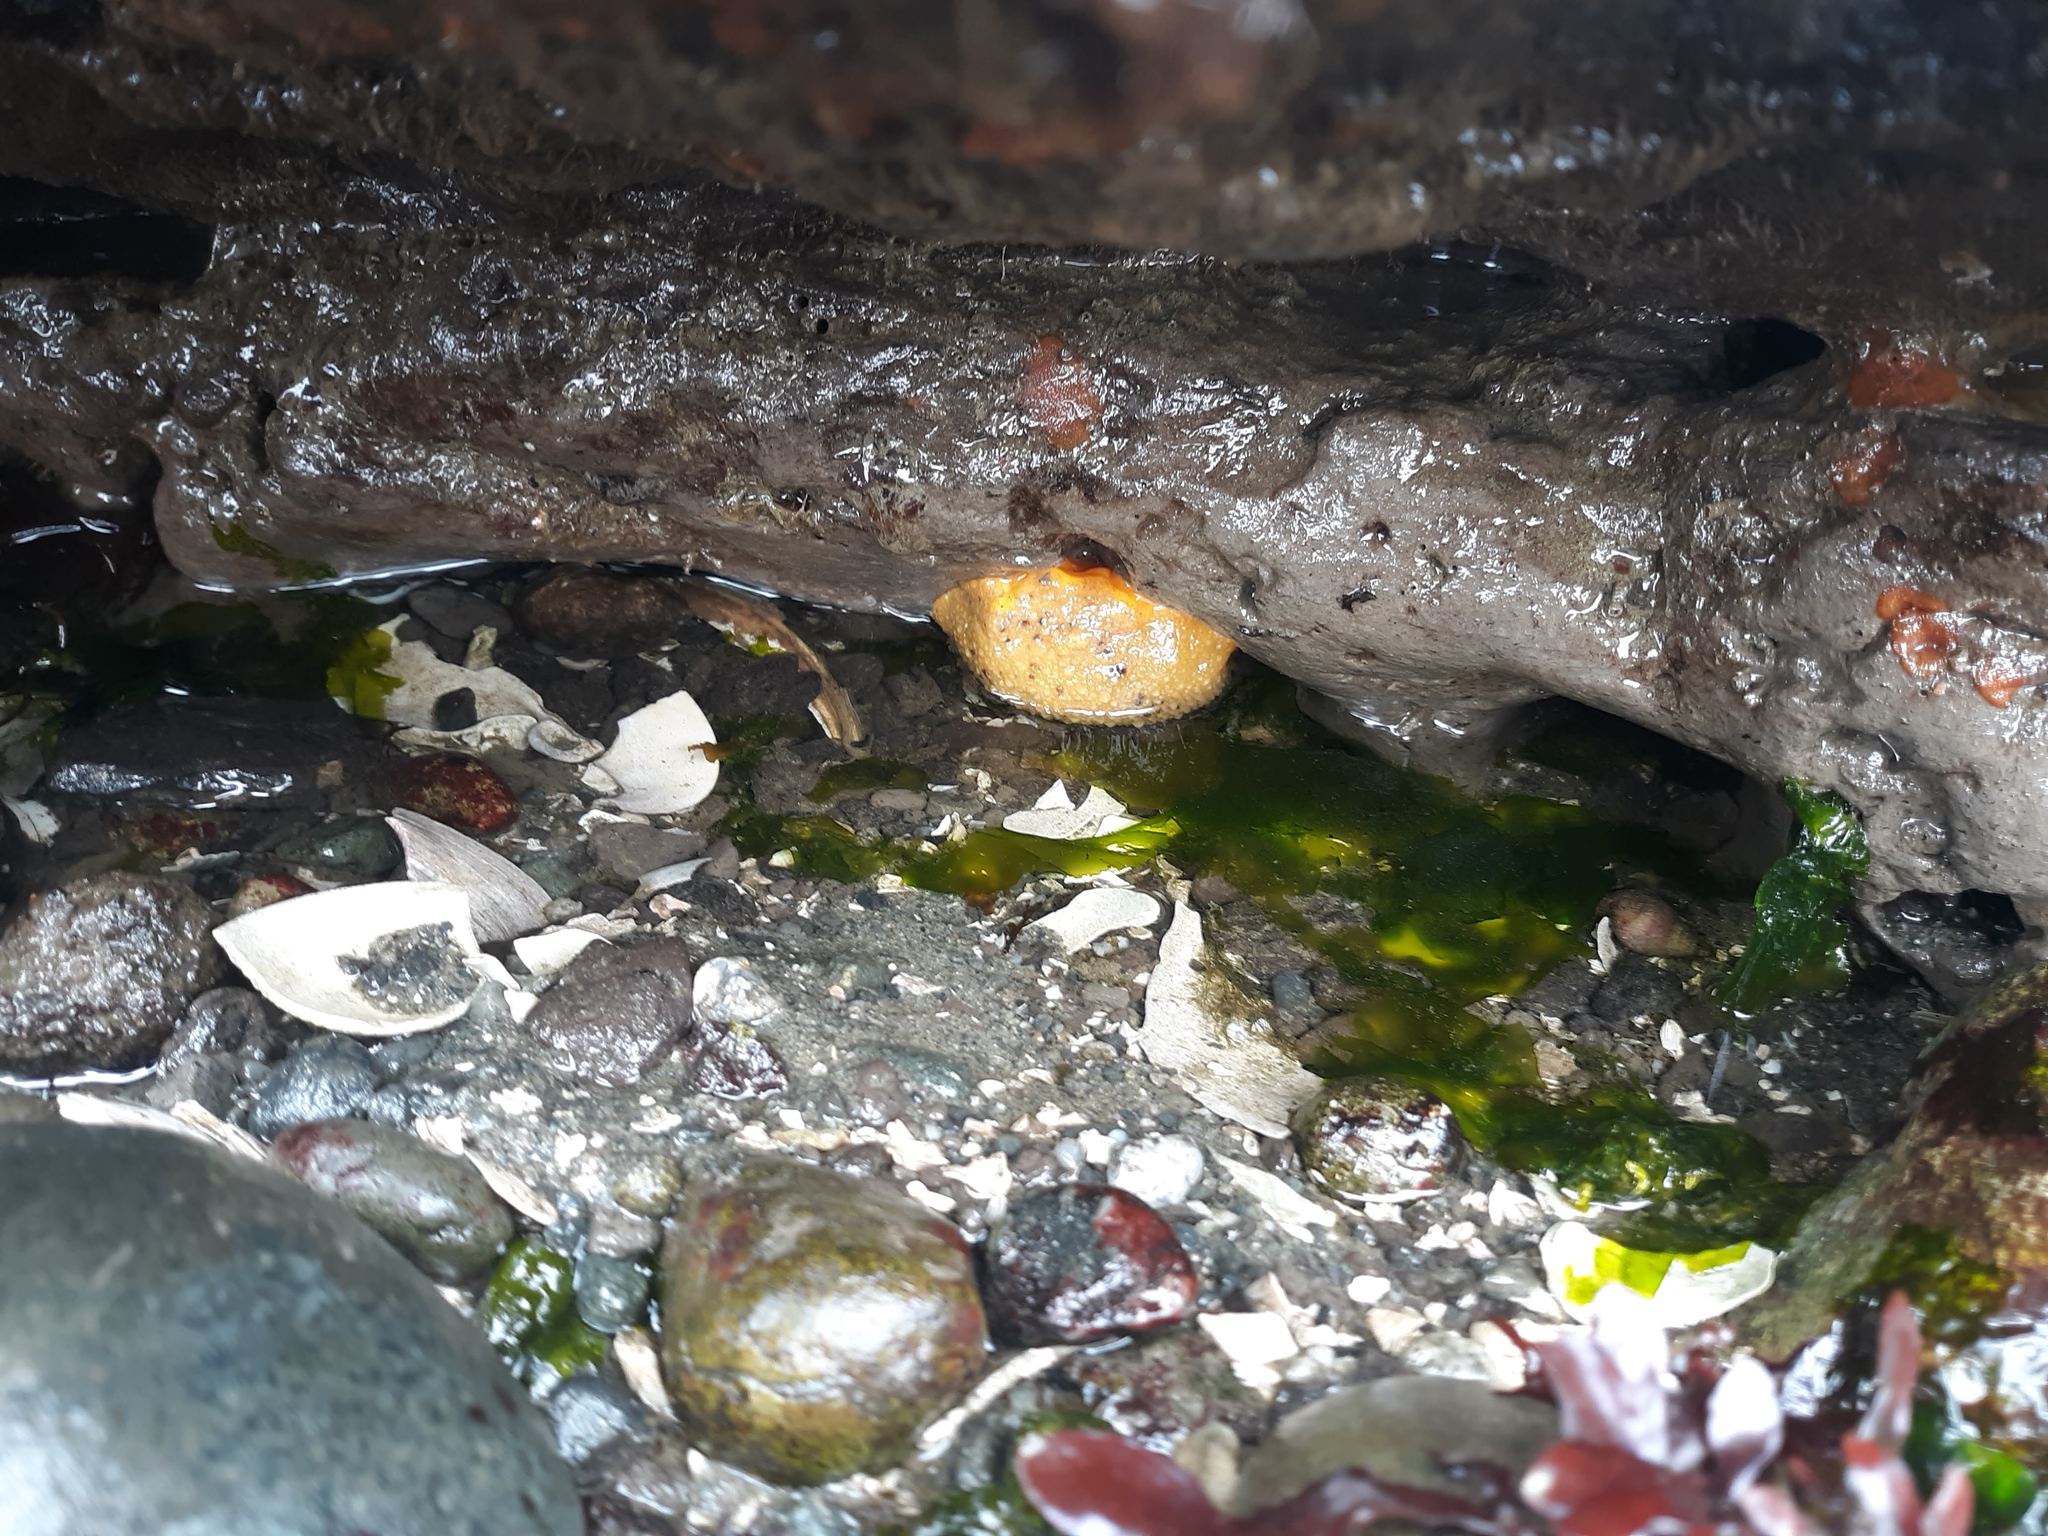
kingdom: Animalia
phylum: Mollusca
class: Gastropoda
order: Nudibranchia
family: Dorididae
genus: Doris
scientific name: Doris montereyensis
